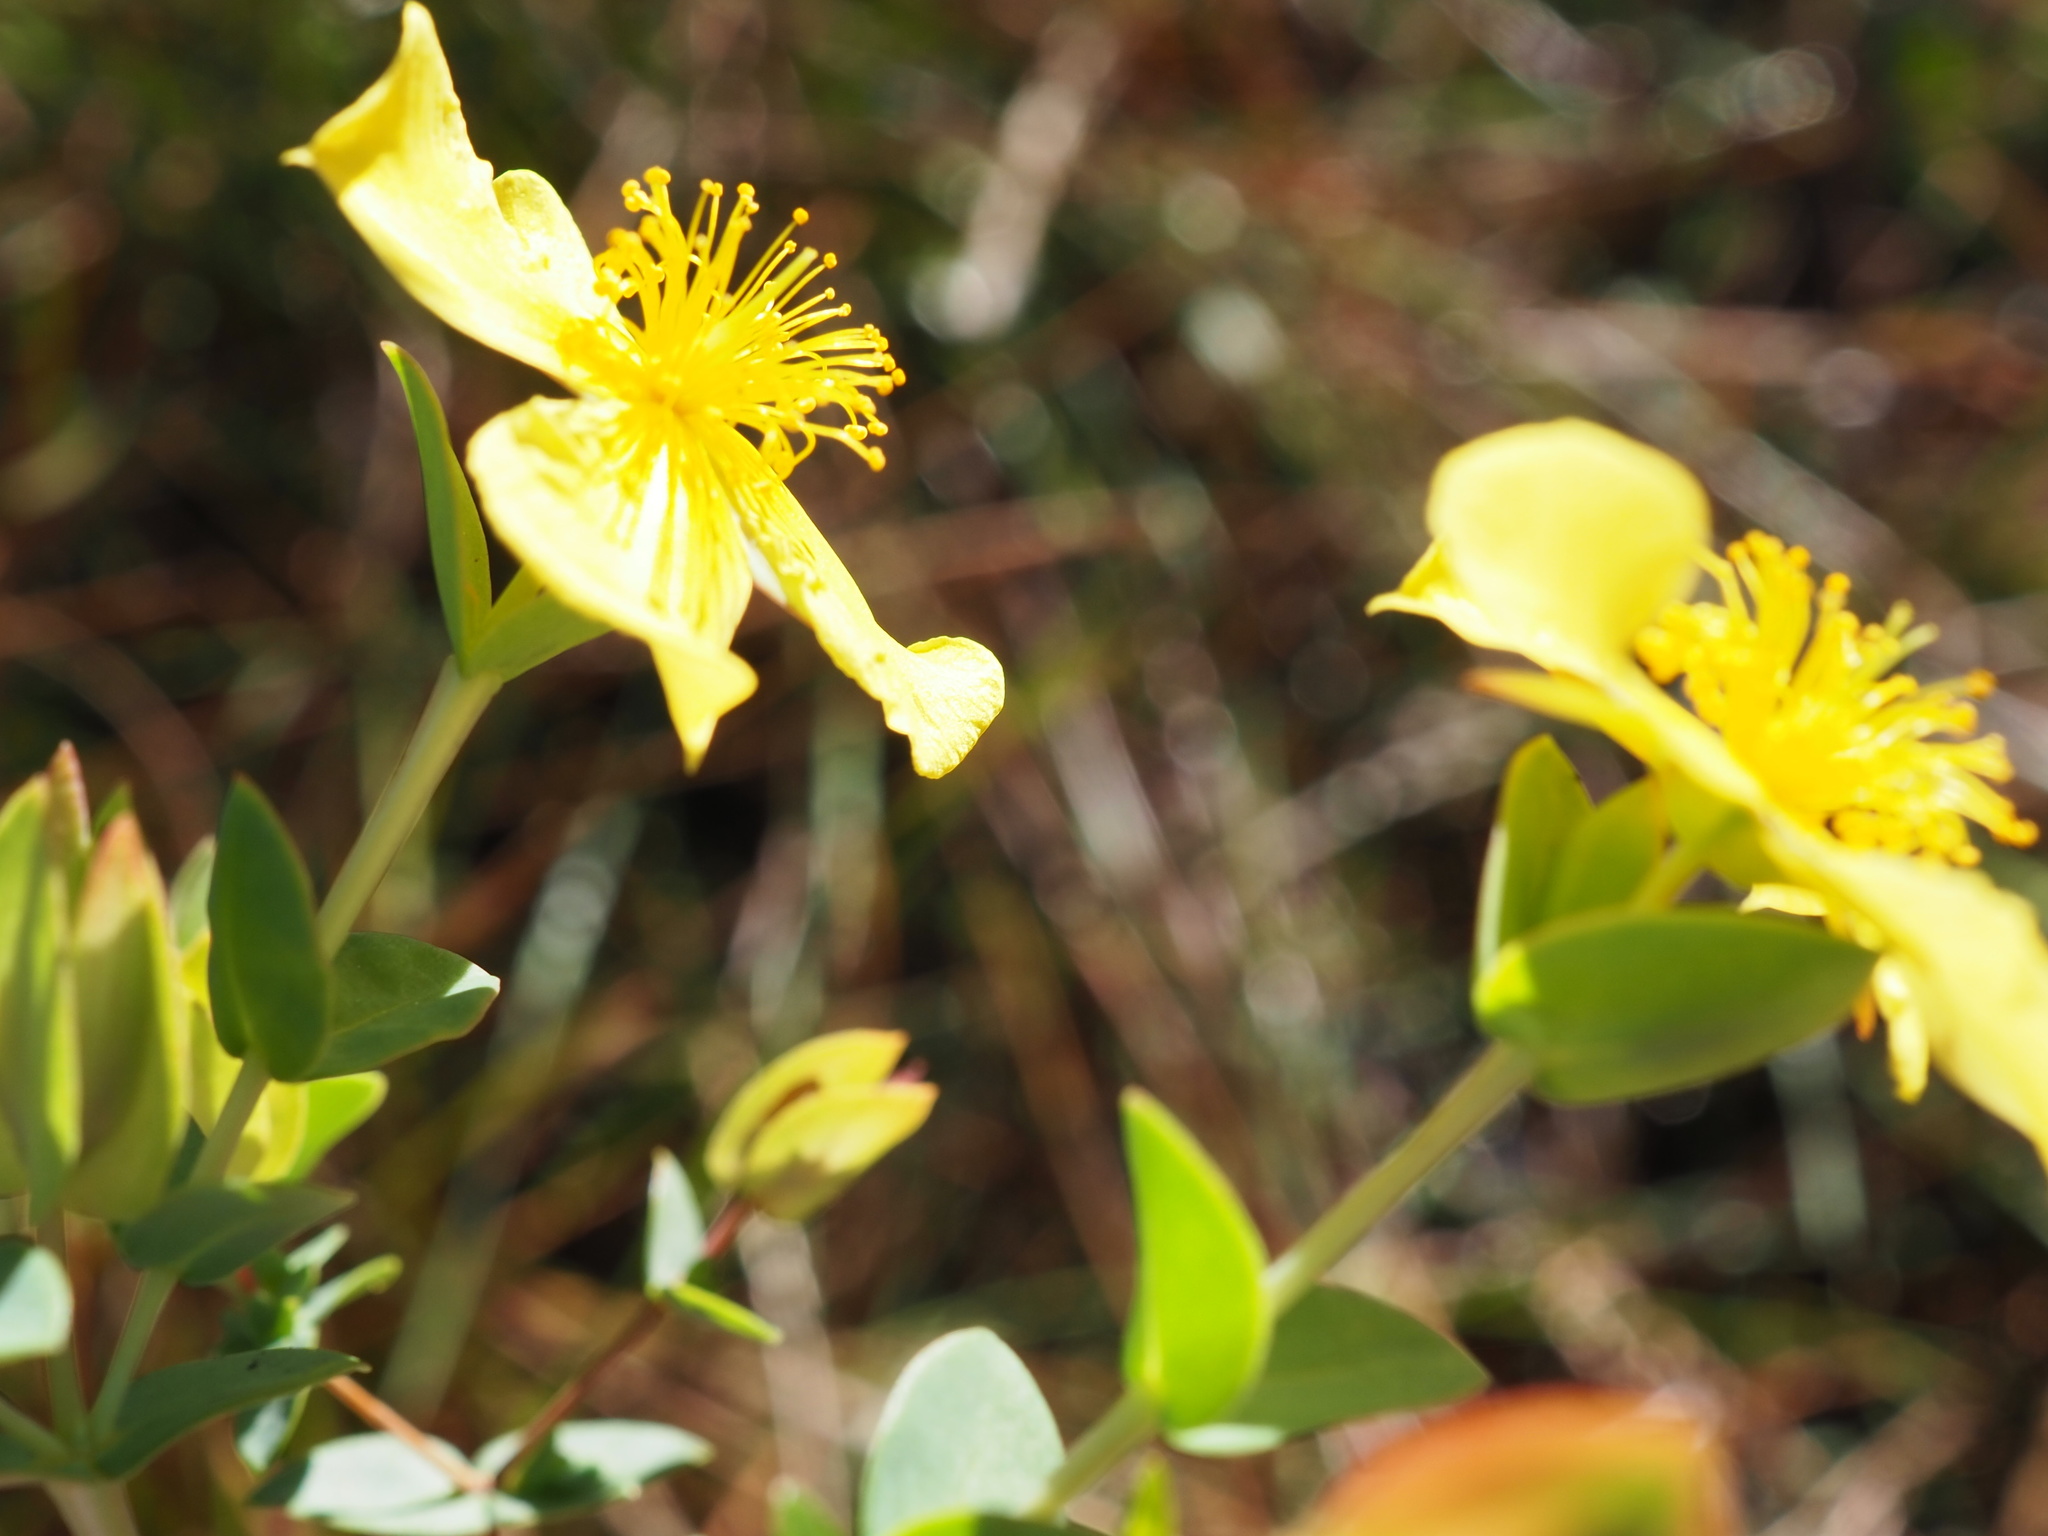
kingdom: Plantae
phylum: Tracheophyta
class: Magnoliopsida
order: Malpighiales
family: Hypericaceae
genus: Hypericum
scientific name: Hypericum tetrapetalum
